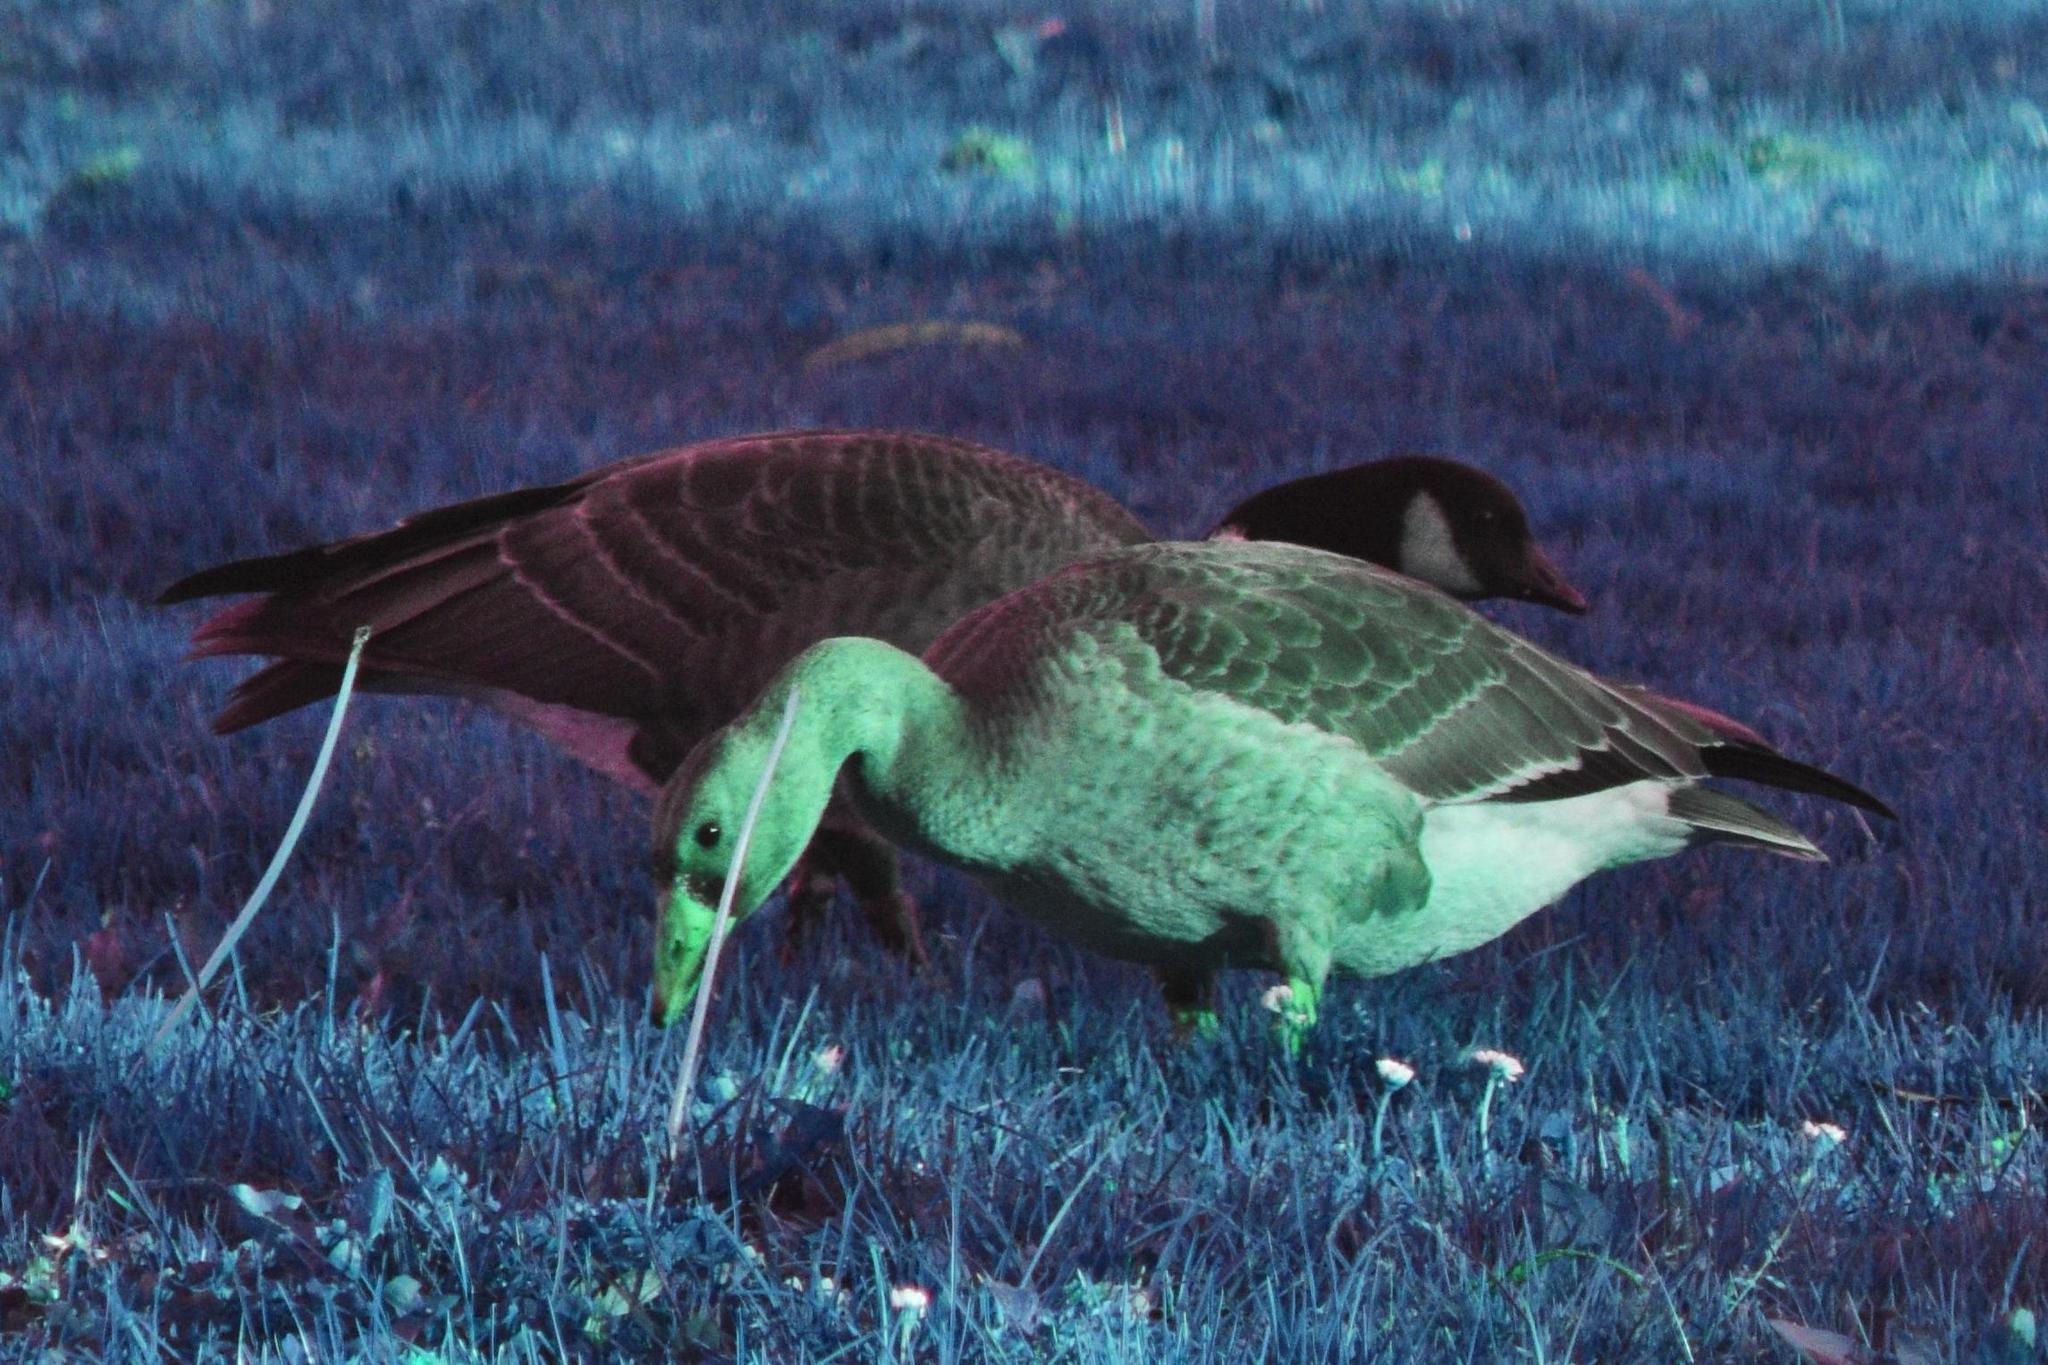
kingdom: Animalia
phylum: Chordata
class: Aves
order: Anseriformes
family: Anatidae
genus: Anser
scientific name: Anser albifrons
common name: Greater white-fronted goose
